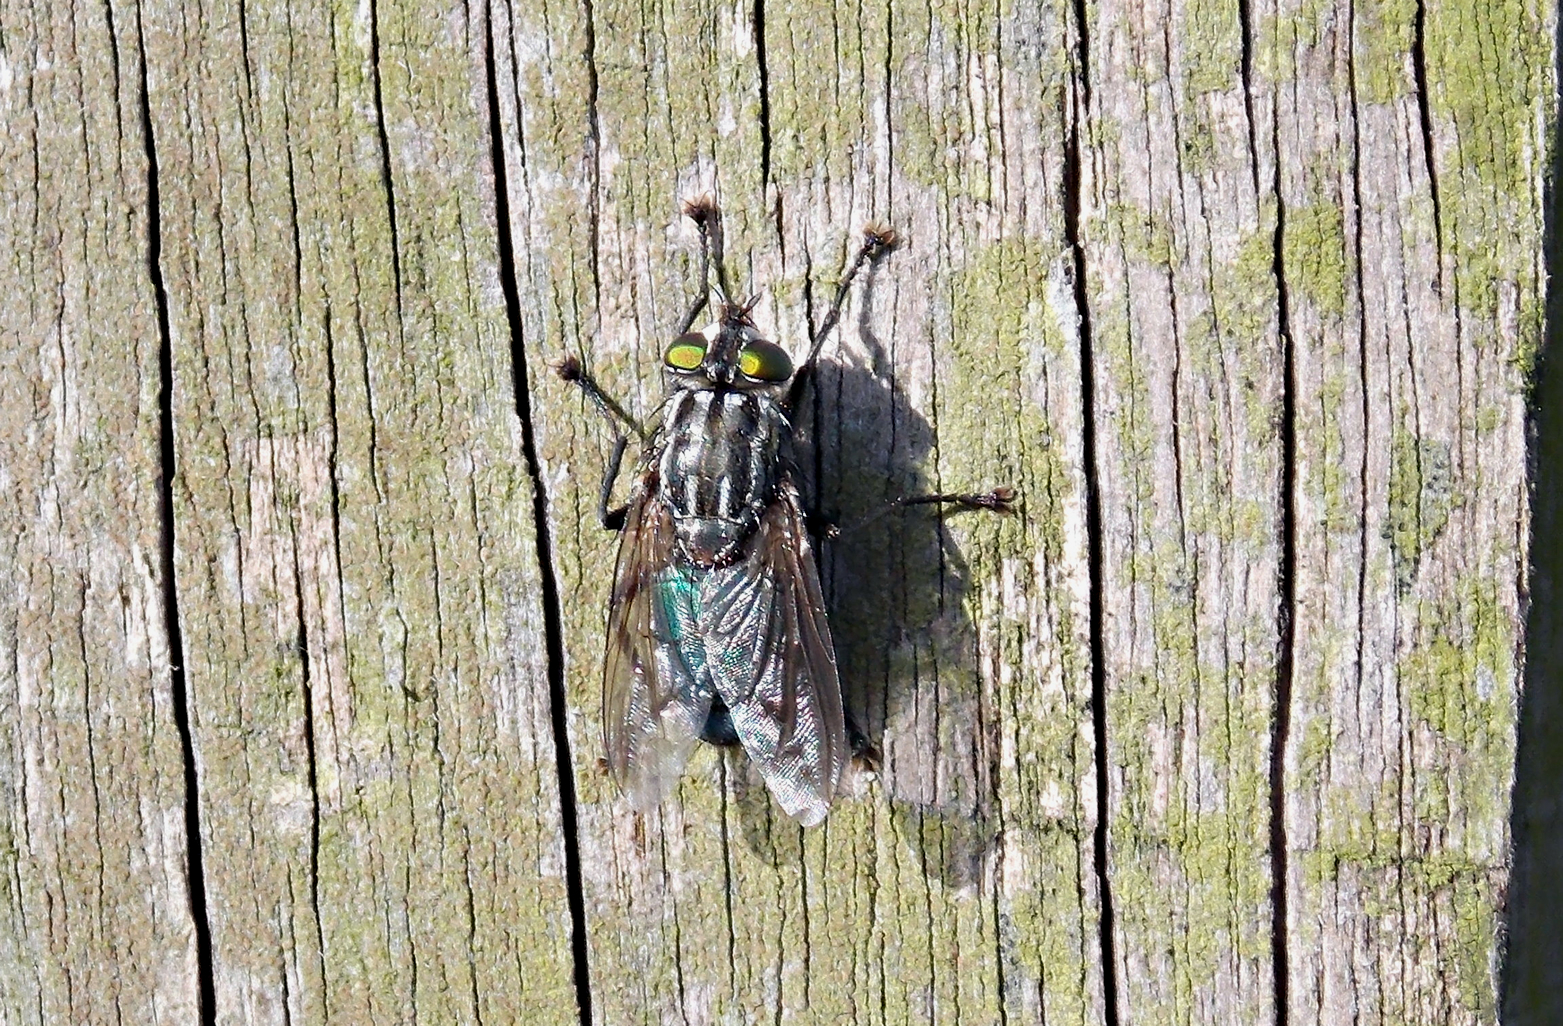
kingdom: Animalia
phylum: Arthropoda
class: Insecta
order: Diptera
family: Calliphoridae
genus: Sarconesia
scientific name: Sarconesia chlorogaster
